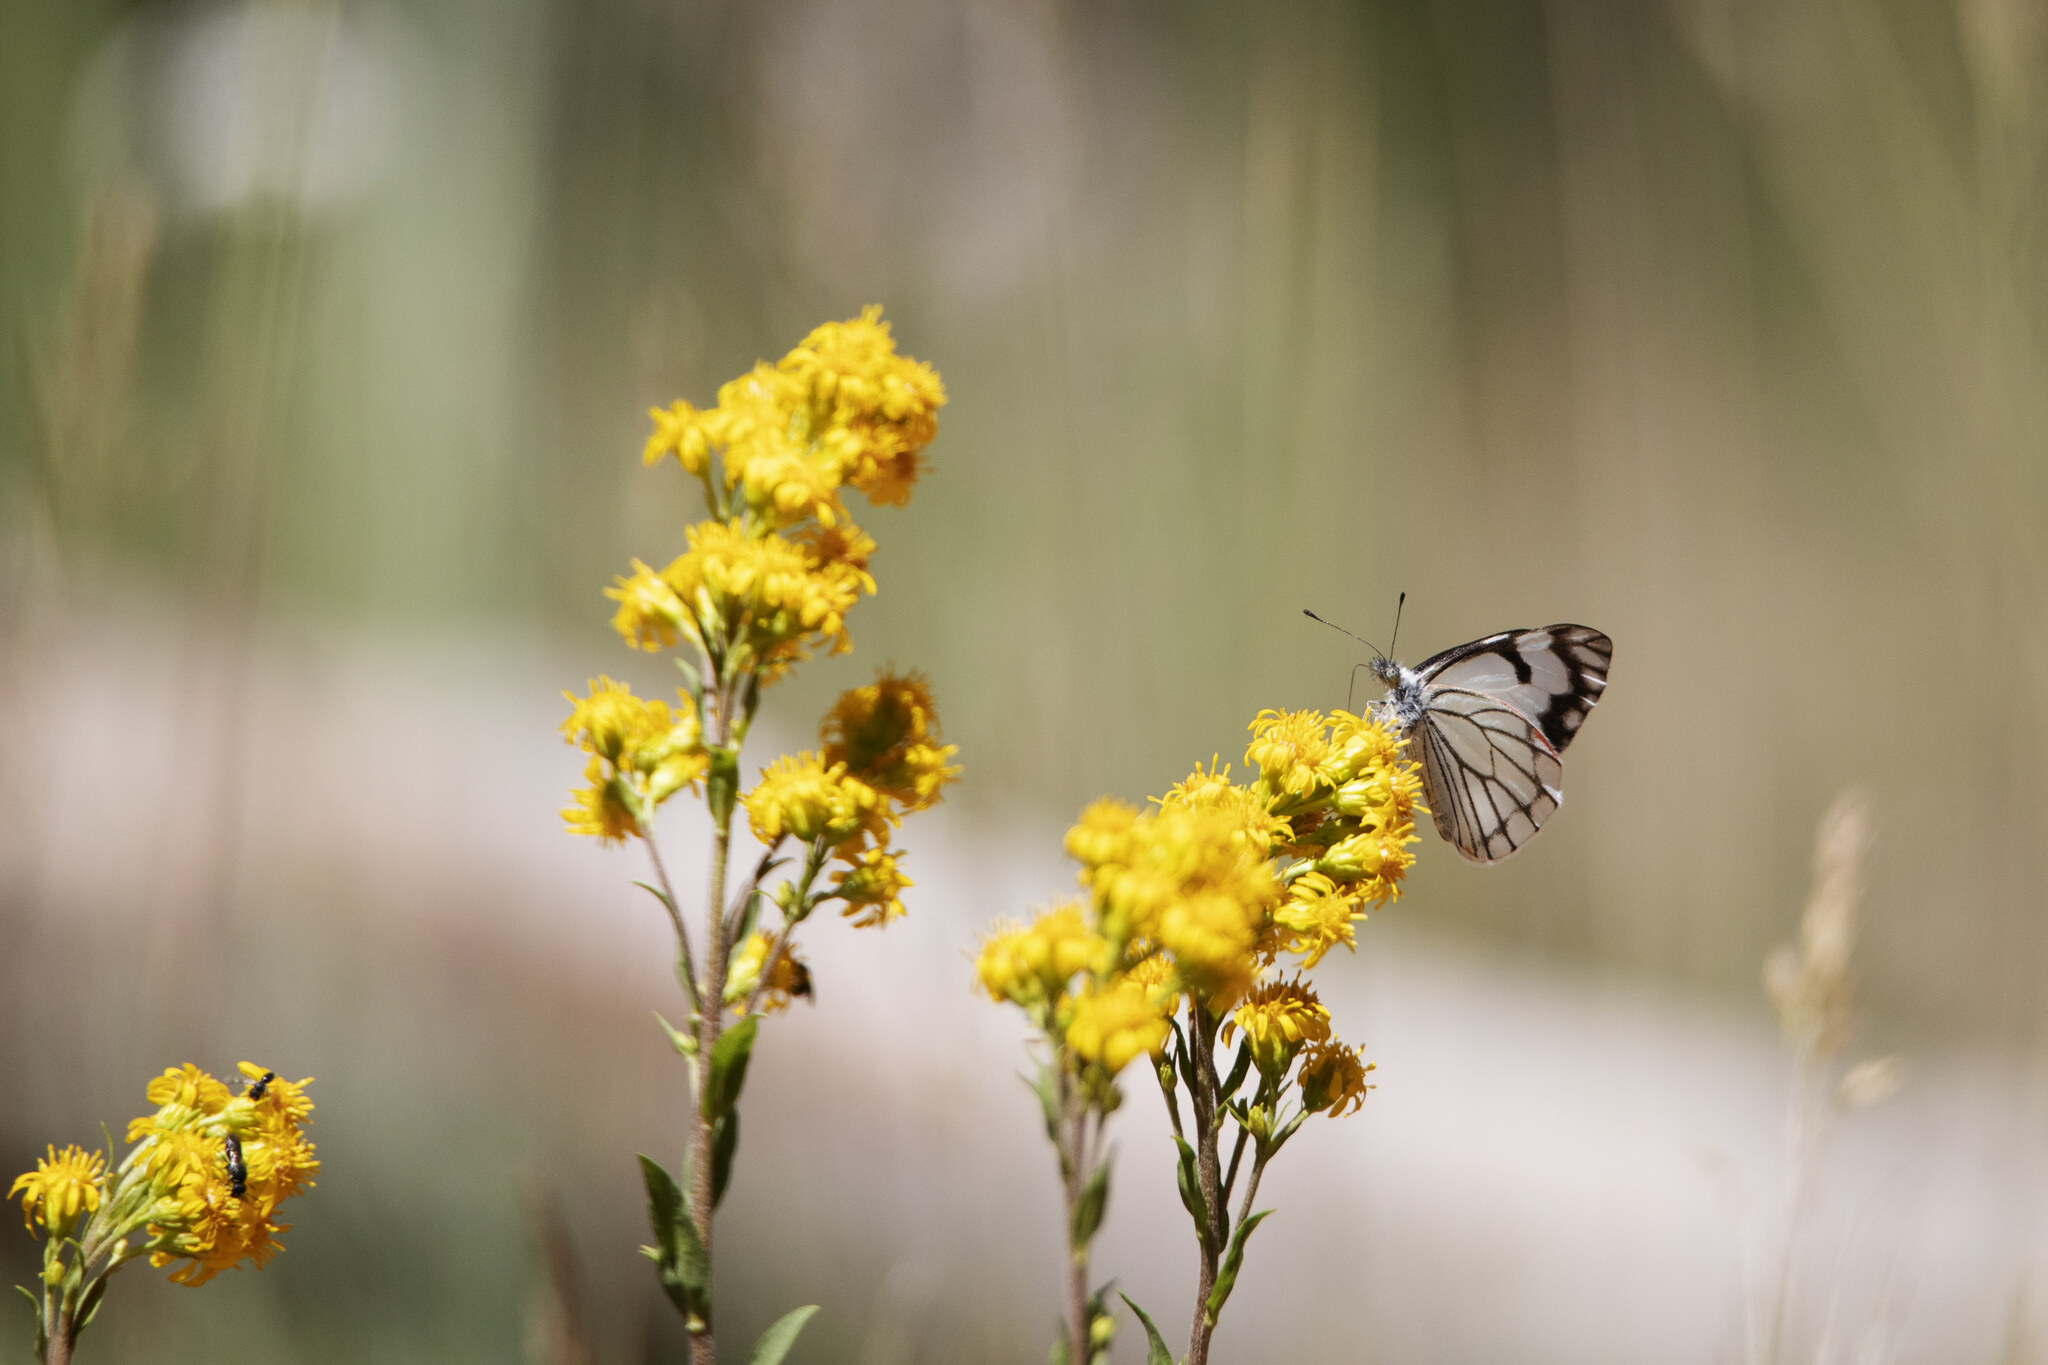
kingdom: Animalia
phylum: Arthropoda
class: Insecta
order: Lepidoptera
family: Pieridae
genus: Neophasia
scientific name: Neophasia menapia
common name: Pine white
